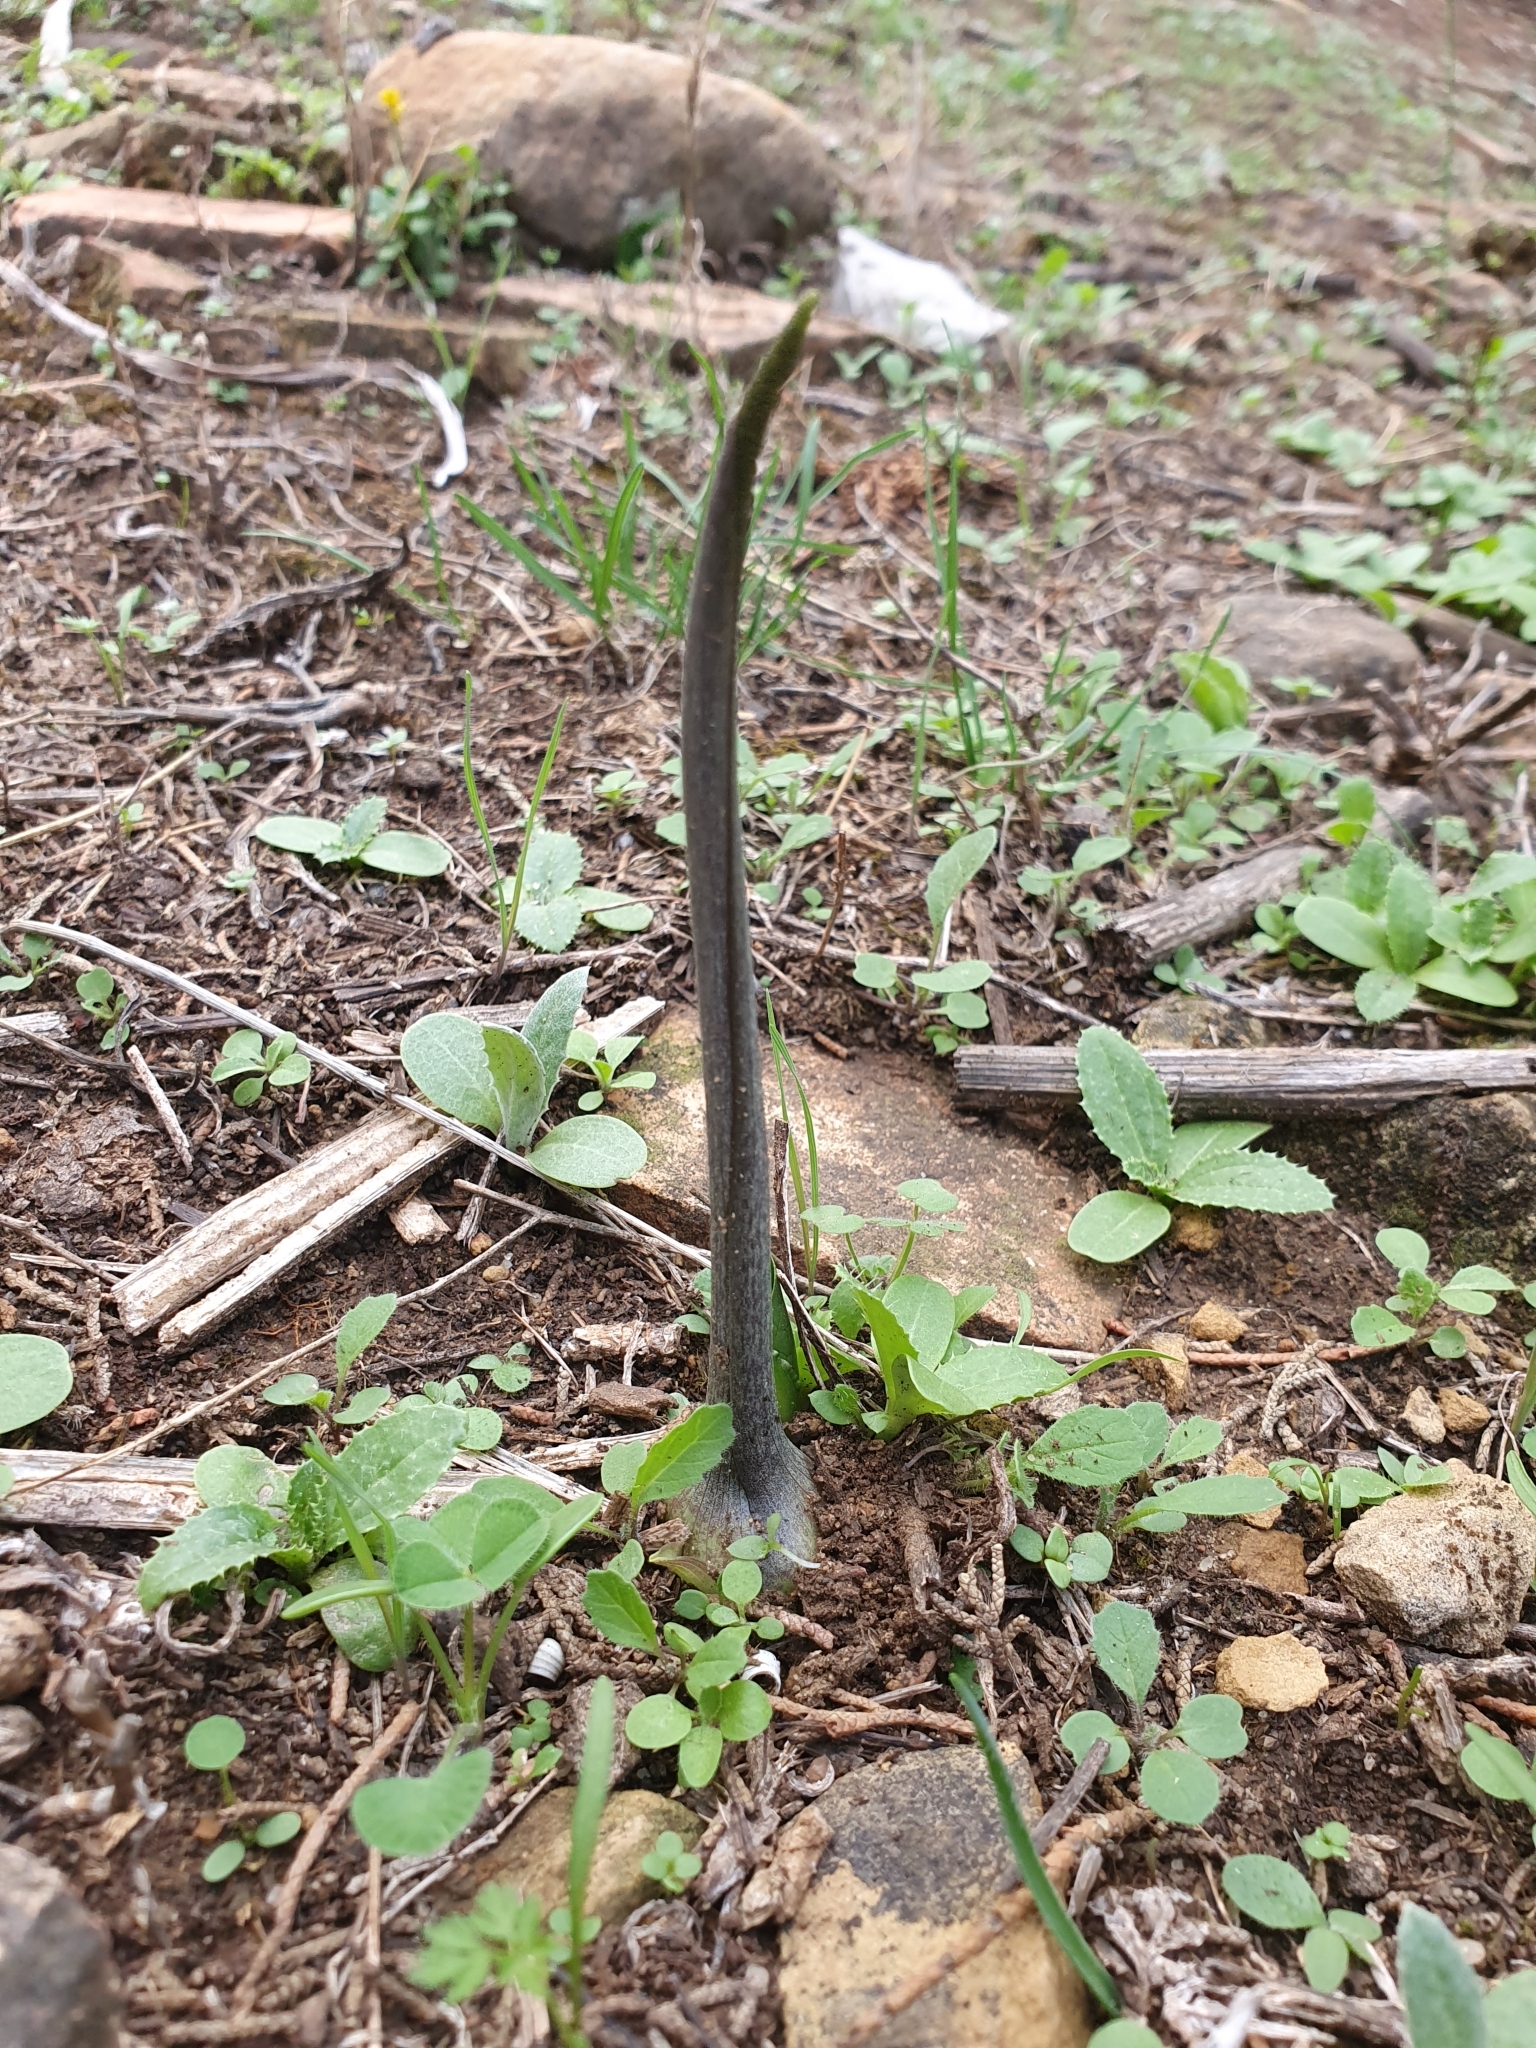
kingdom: Plantae
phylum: Tracheophyta
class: Liliopsida
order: Alismatales
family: Araceae
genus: Biarum
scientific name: Biarum dispar
